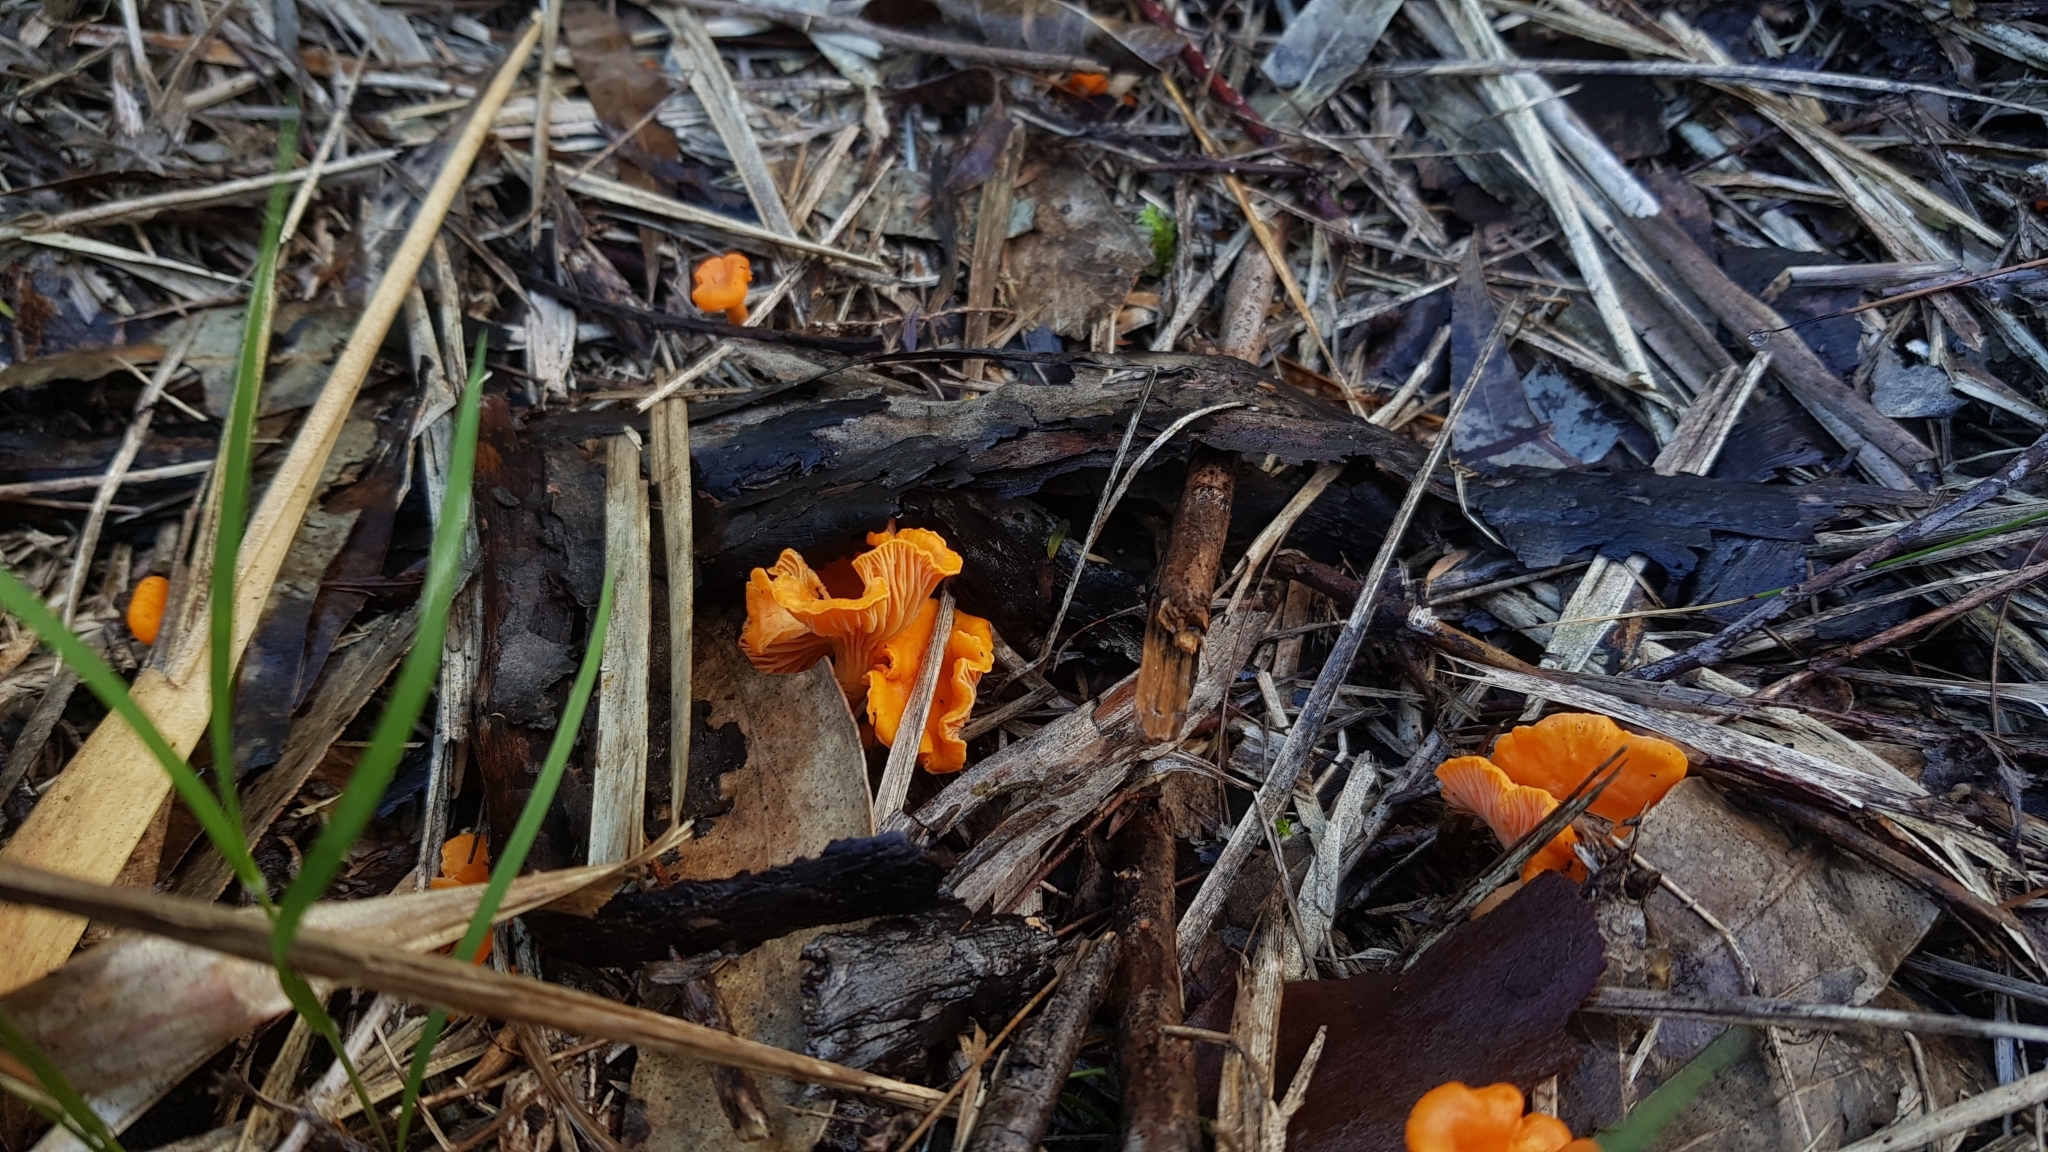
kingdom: Fungi
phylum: Basidiomycota
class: Agaricomycetes
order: Cantharellales
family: Hydnaceae
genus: Cantharellus
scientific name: Cantharellus
